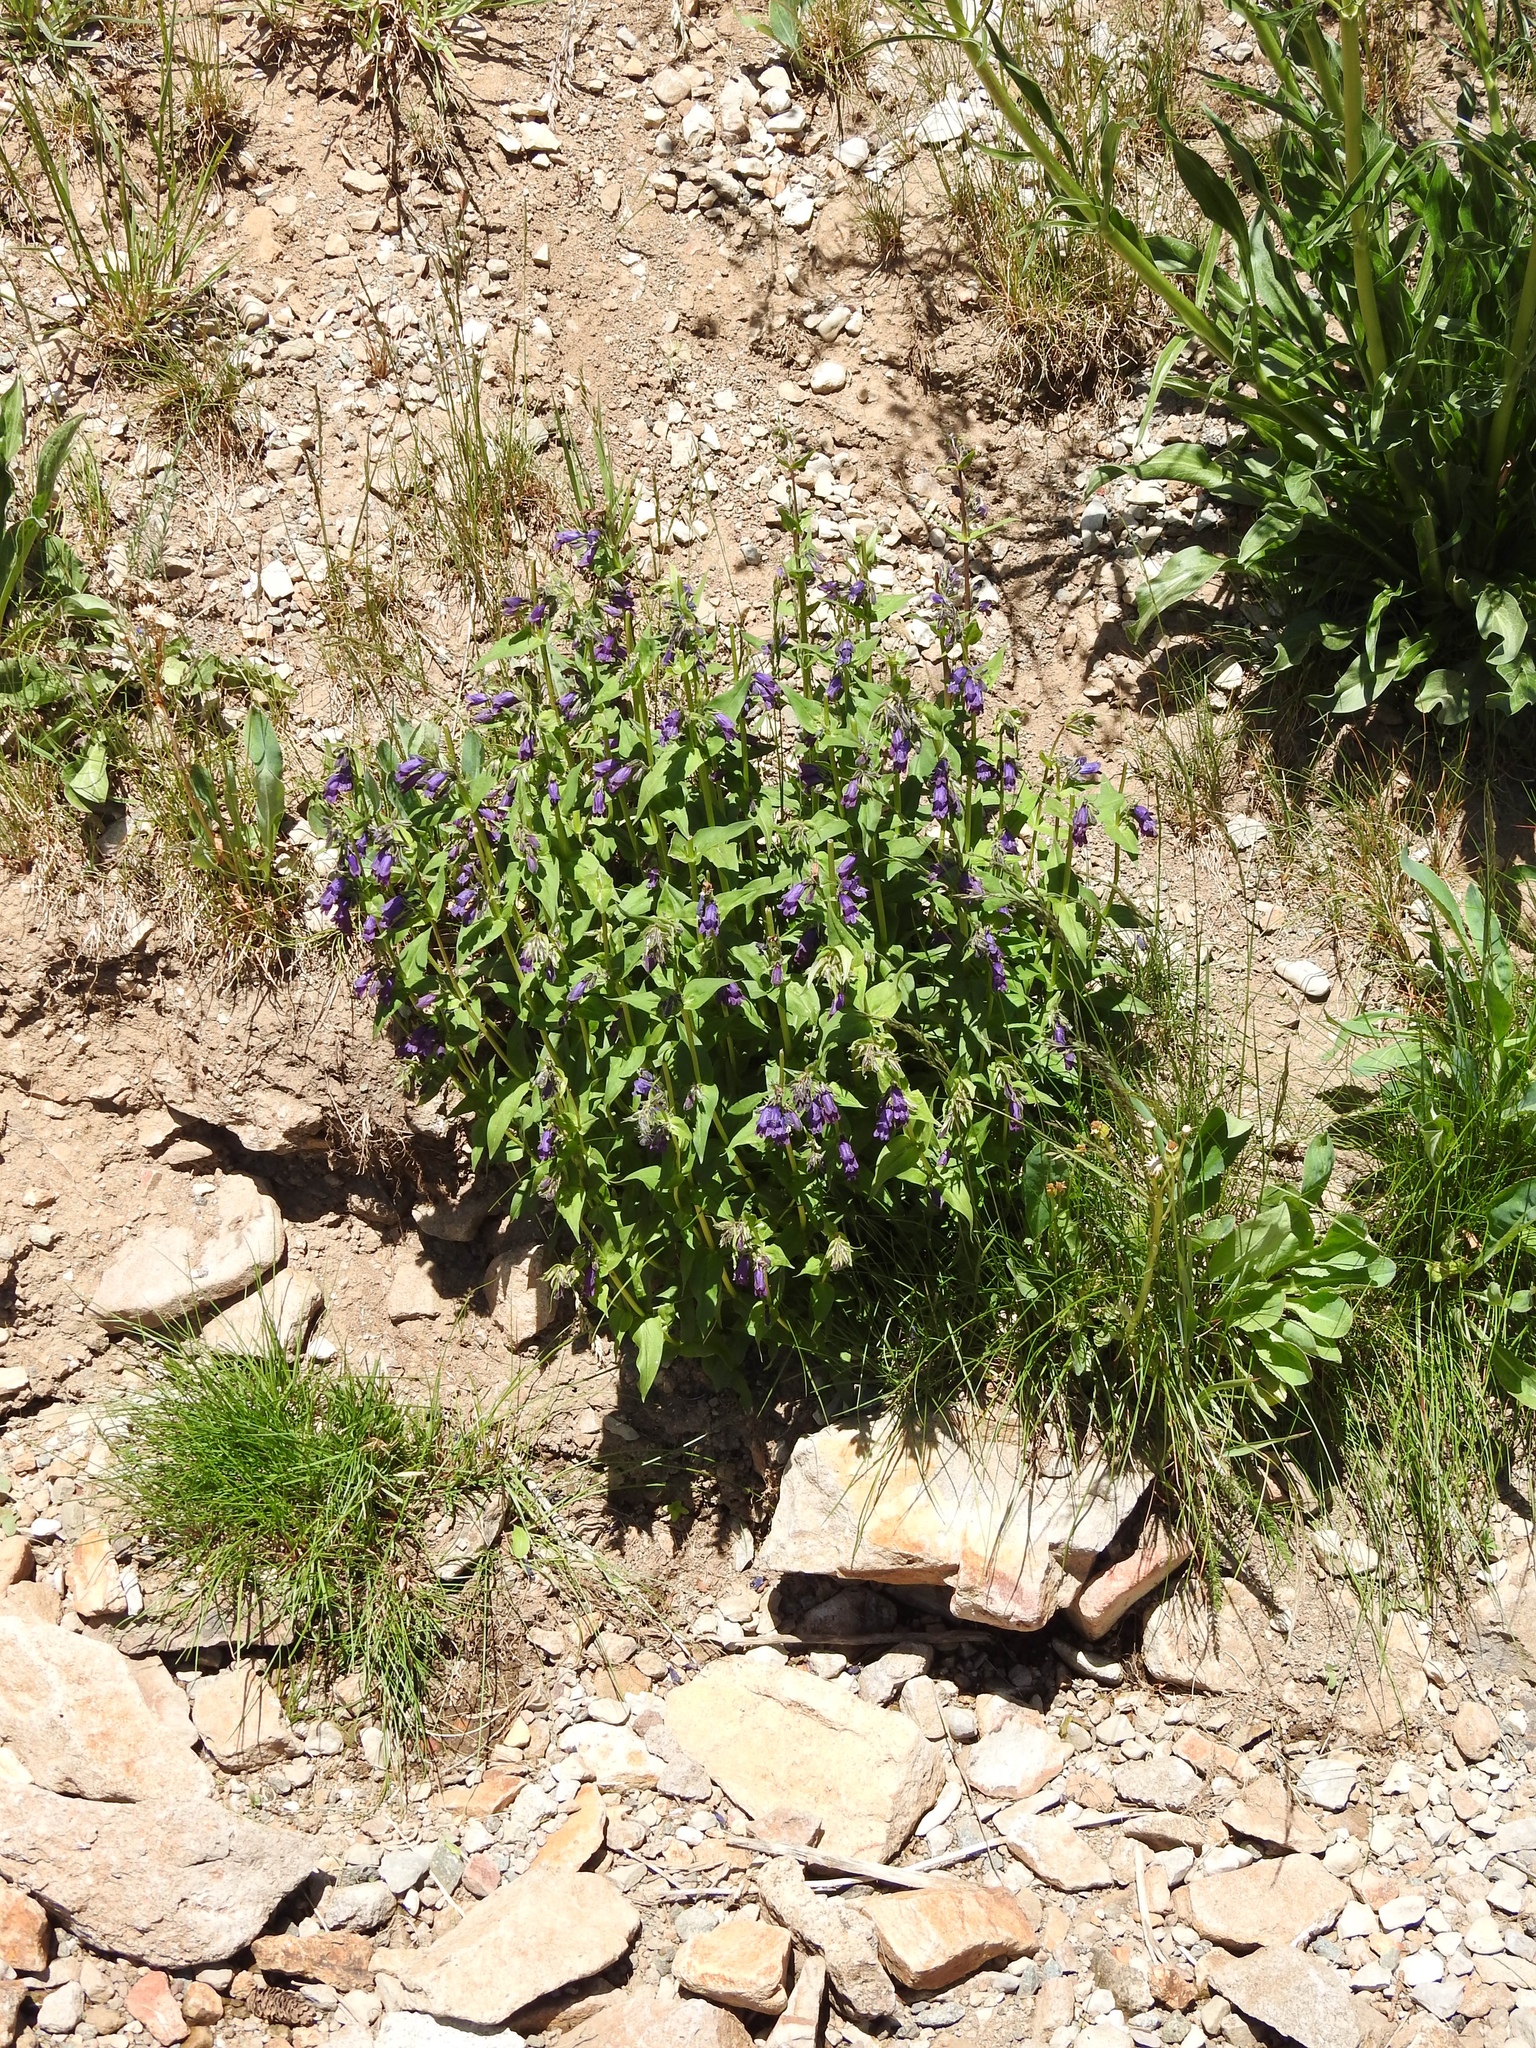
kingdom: Plantae
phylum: Tracheophyta
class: Magnoliopsida
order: Lamiales
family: Plantaginaceae
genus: Penstemon
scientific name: Penstemon whippleanus
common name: Whipple's penstemon
